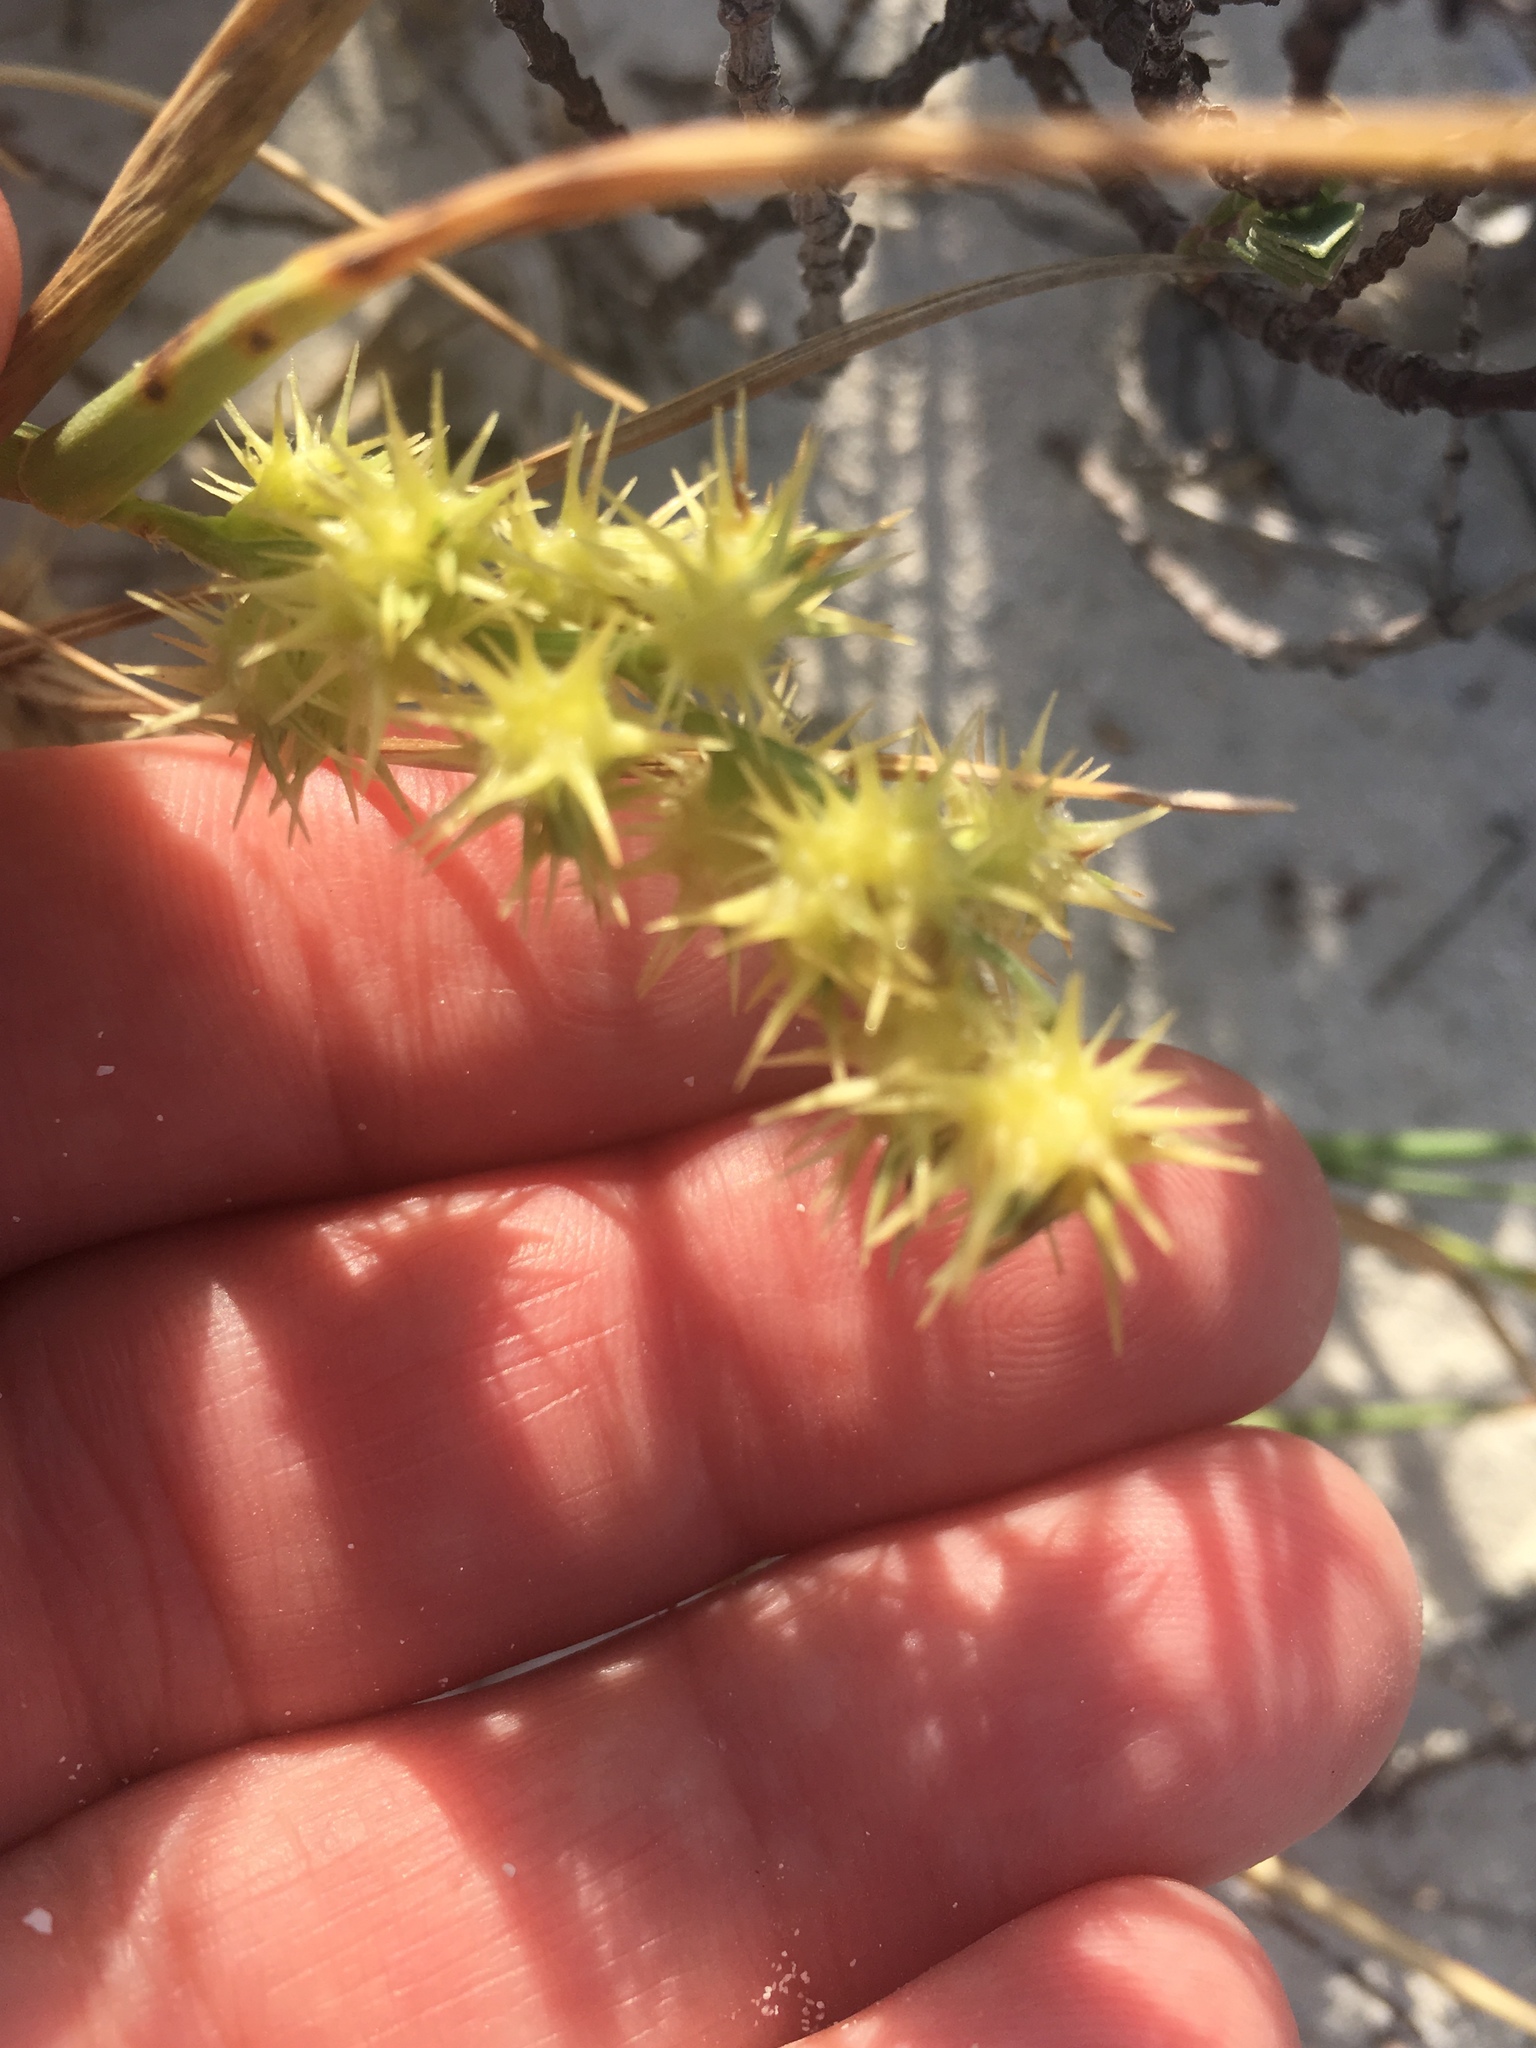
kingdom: Plantae
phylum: Tracheophyta
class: Liliopsida
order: Poales
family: Poaceae
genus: Cenchrus
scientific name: Cenchrus echinatus
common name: Southern sandbur
